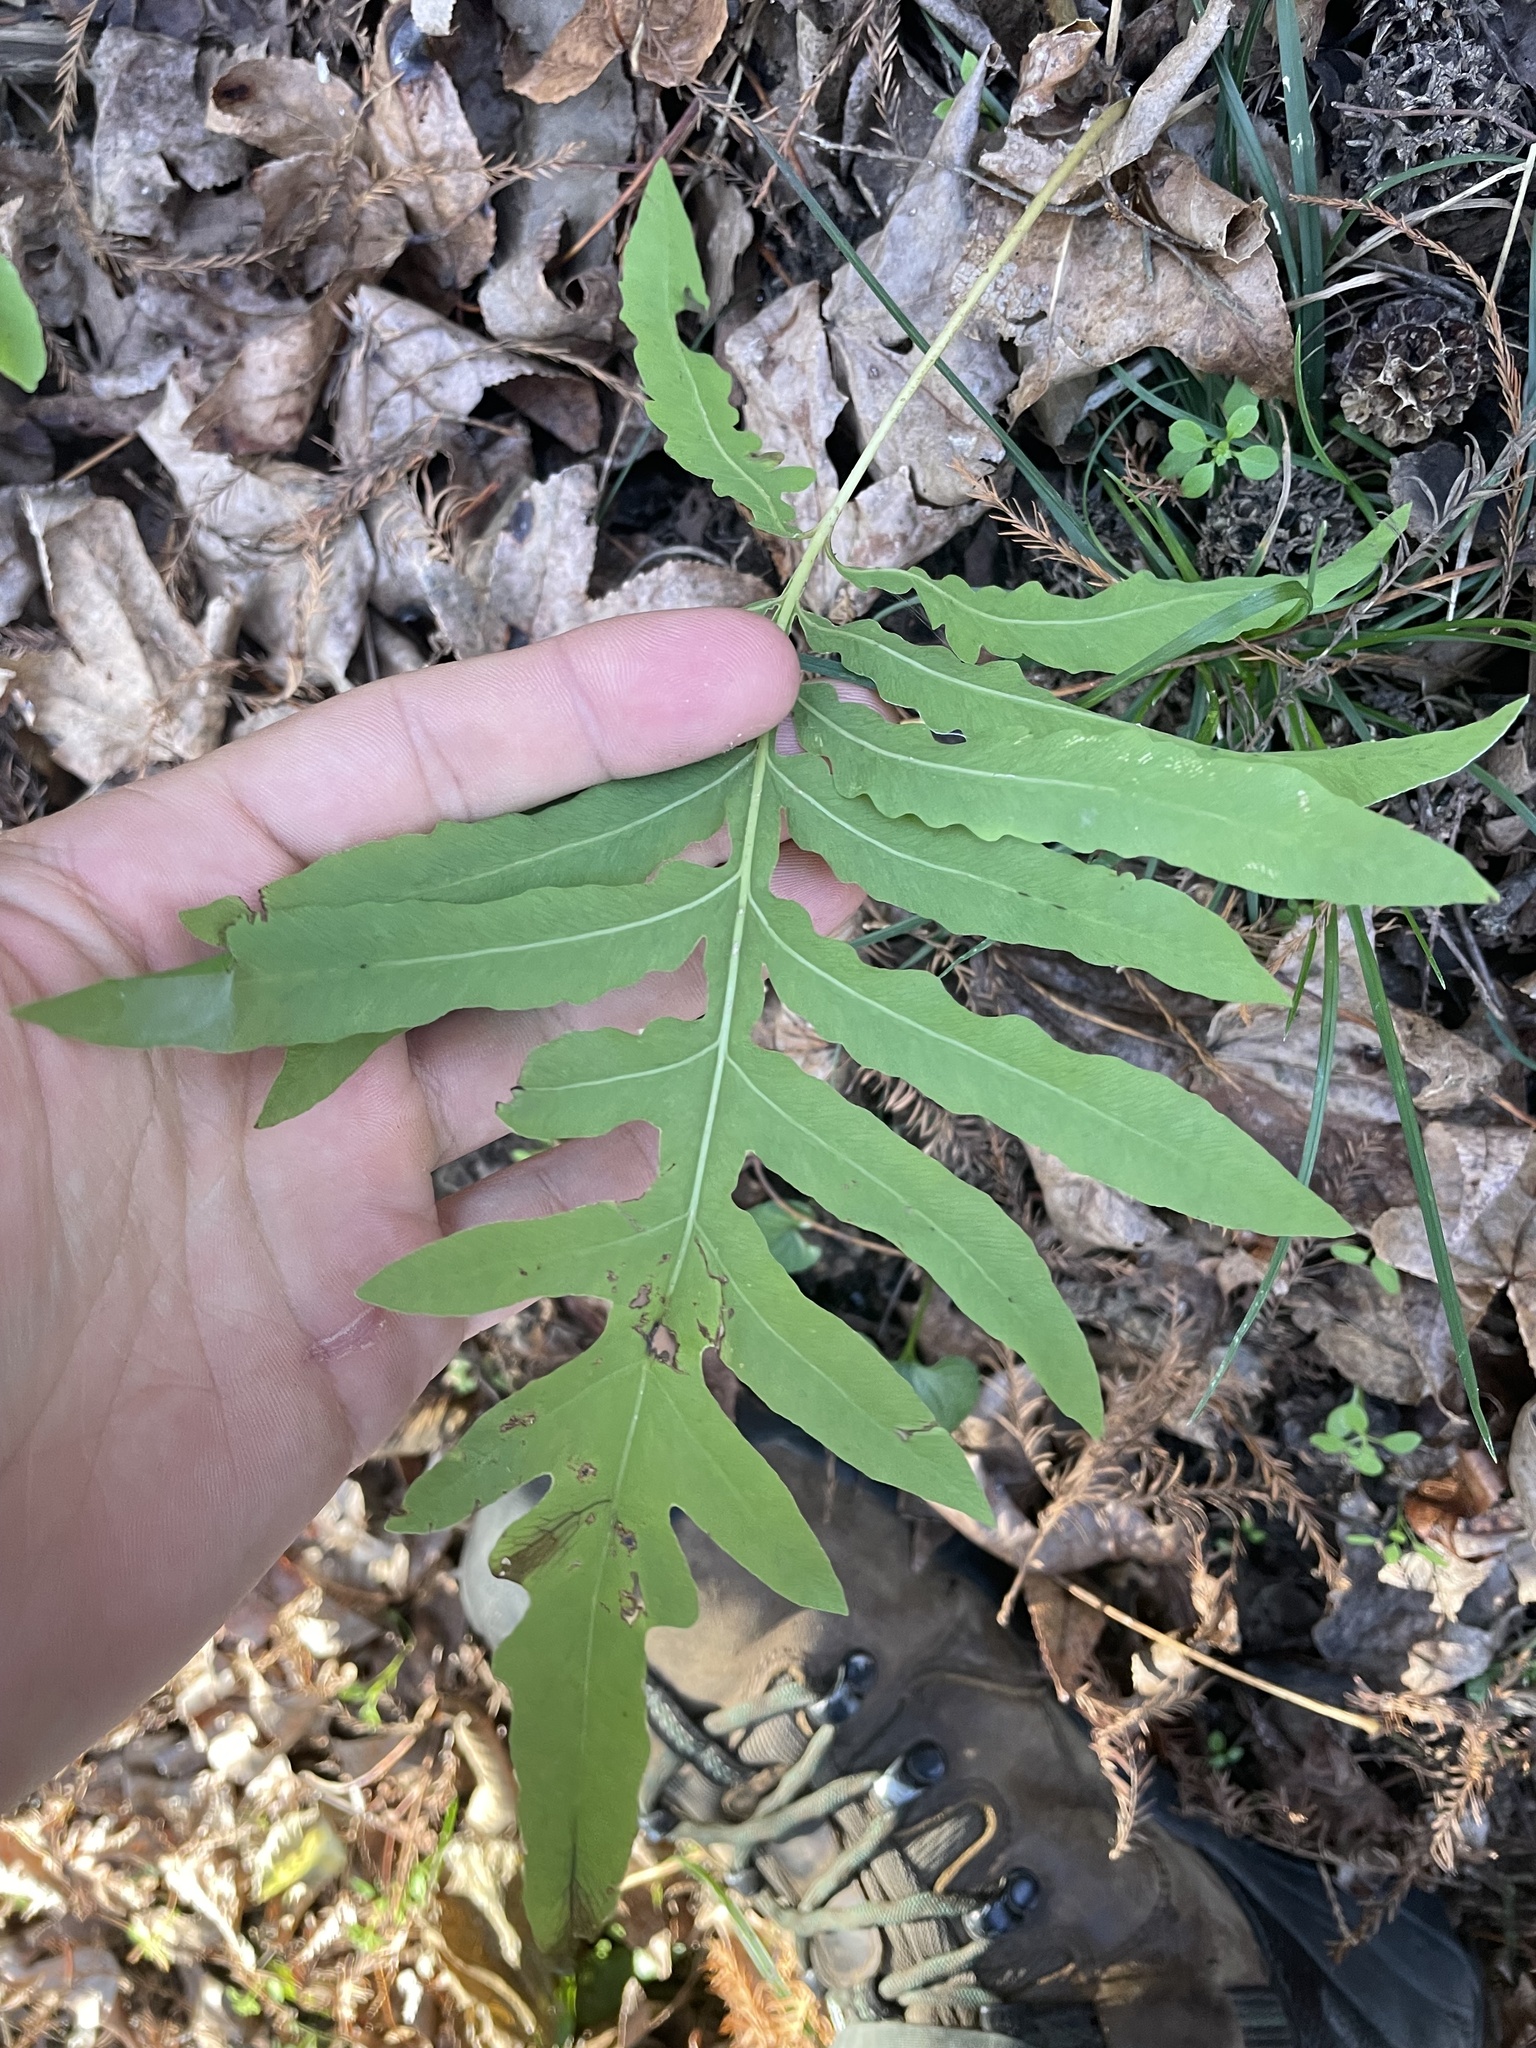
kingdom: Plantae
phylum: Tracheophyta
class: Polypodiopsida
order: Polypodiales
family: Onocleaceae
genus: Onoclea
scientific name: Onoclea sensibilis
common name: Sensitive fern
